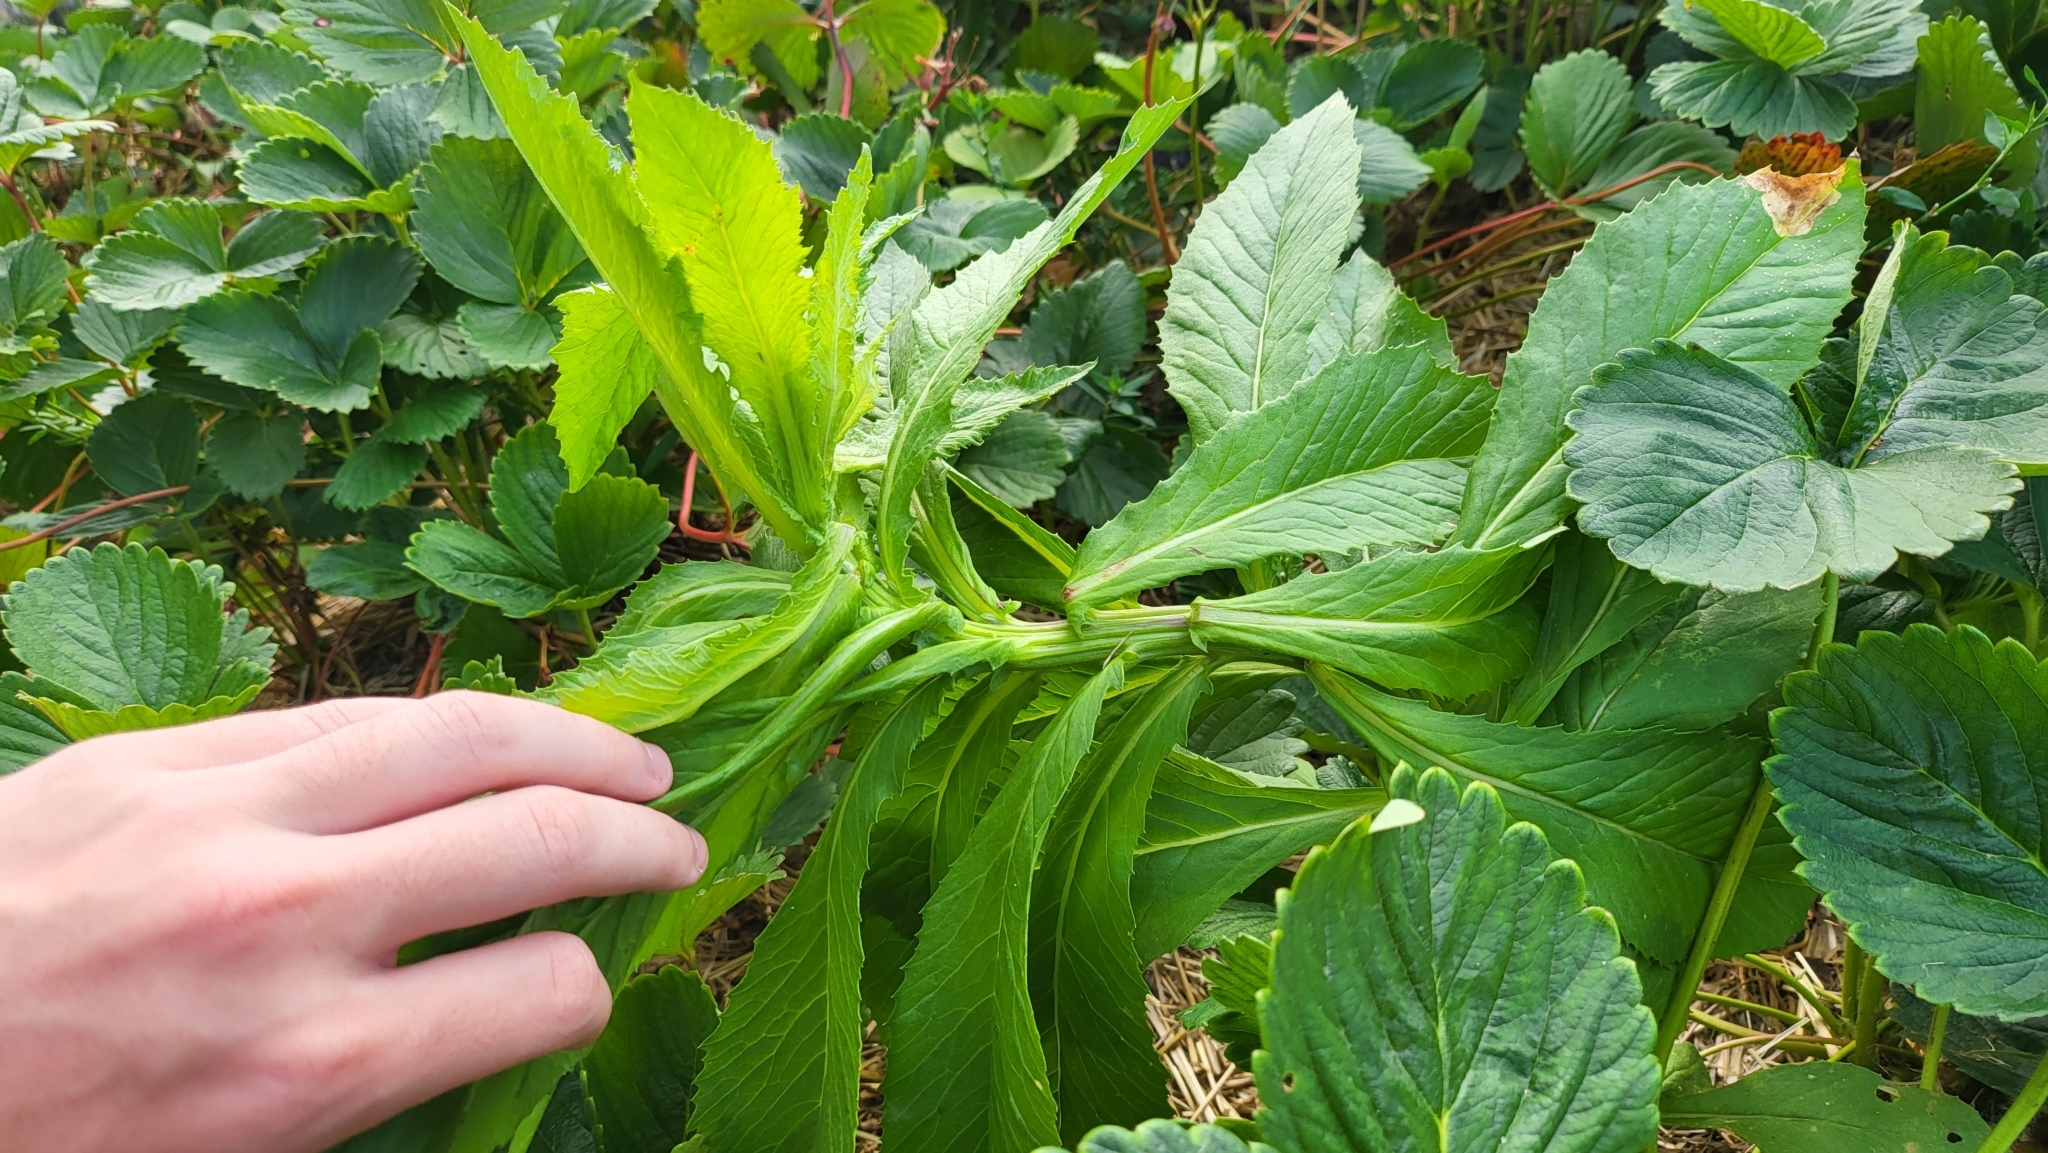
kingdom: Plantae
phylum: Tracheophyta
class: Magnoliopsida
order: Asterales
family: Asteraceae
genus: Erechtites
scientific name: Erechtites hieraciifolius
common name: American burnweed
